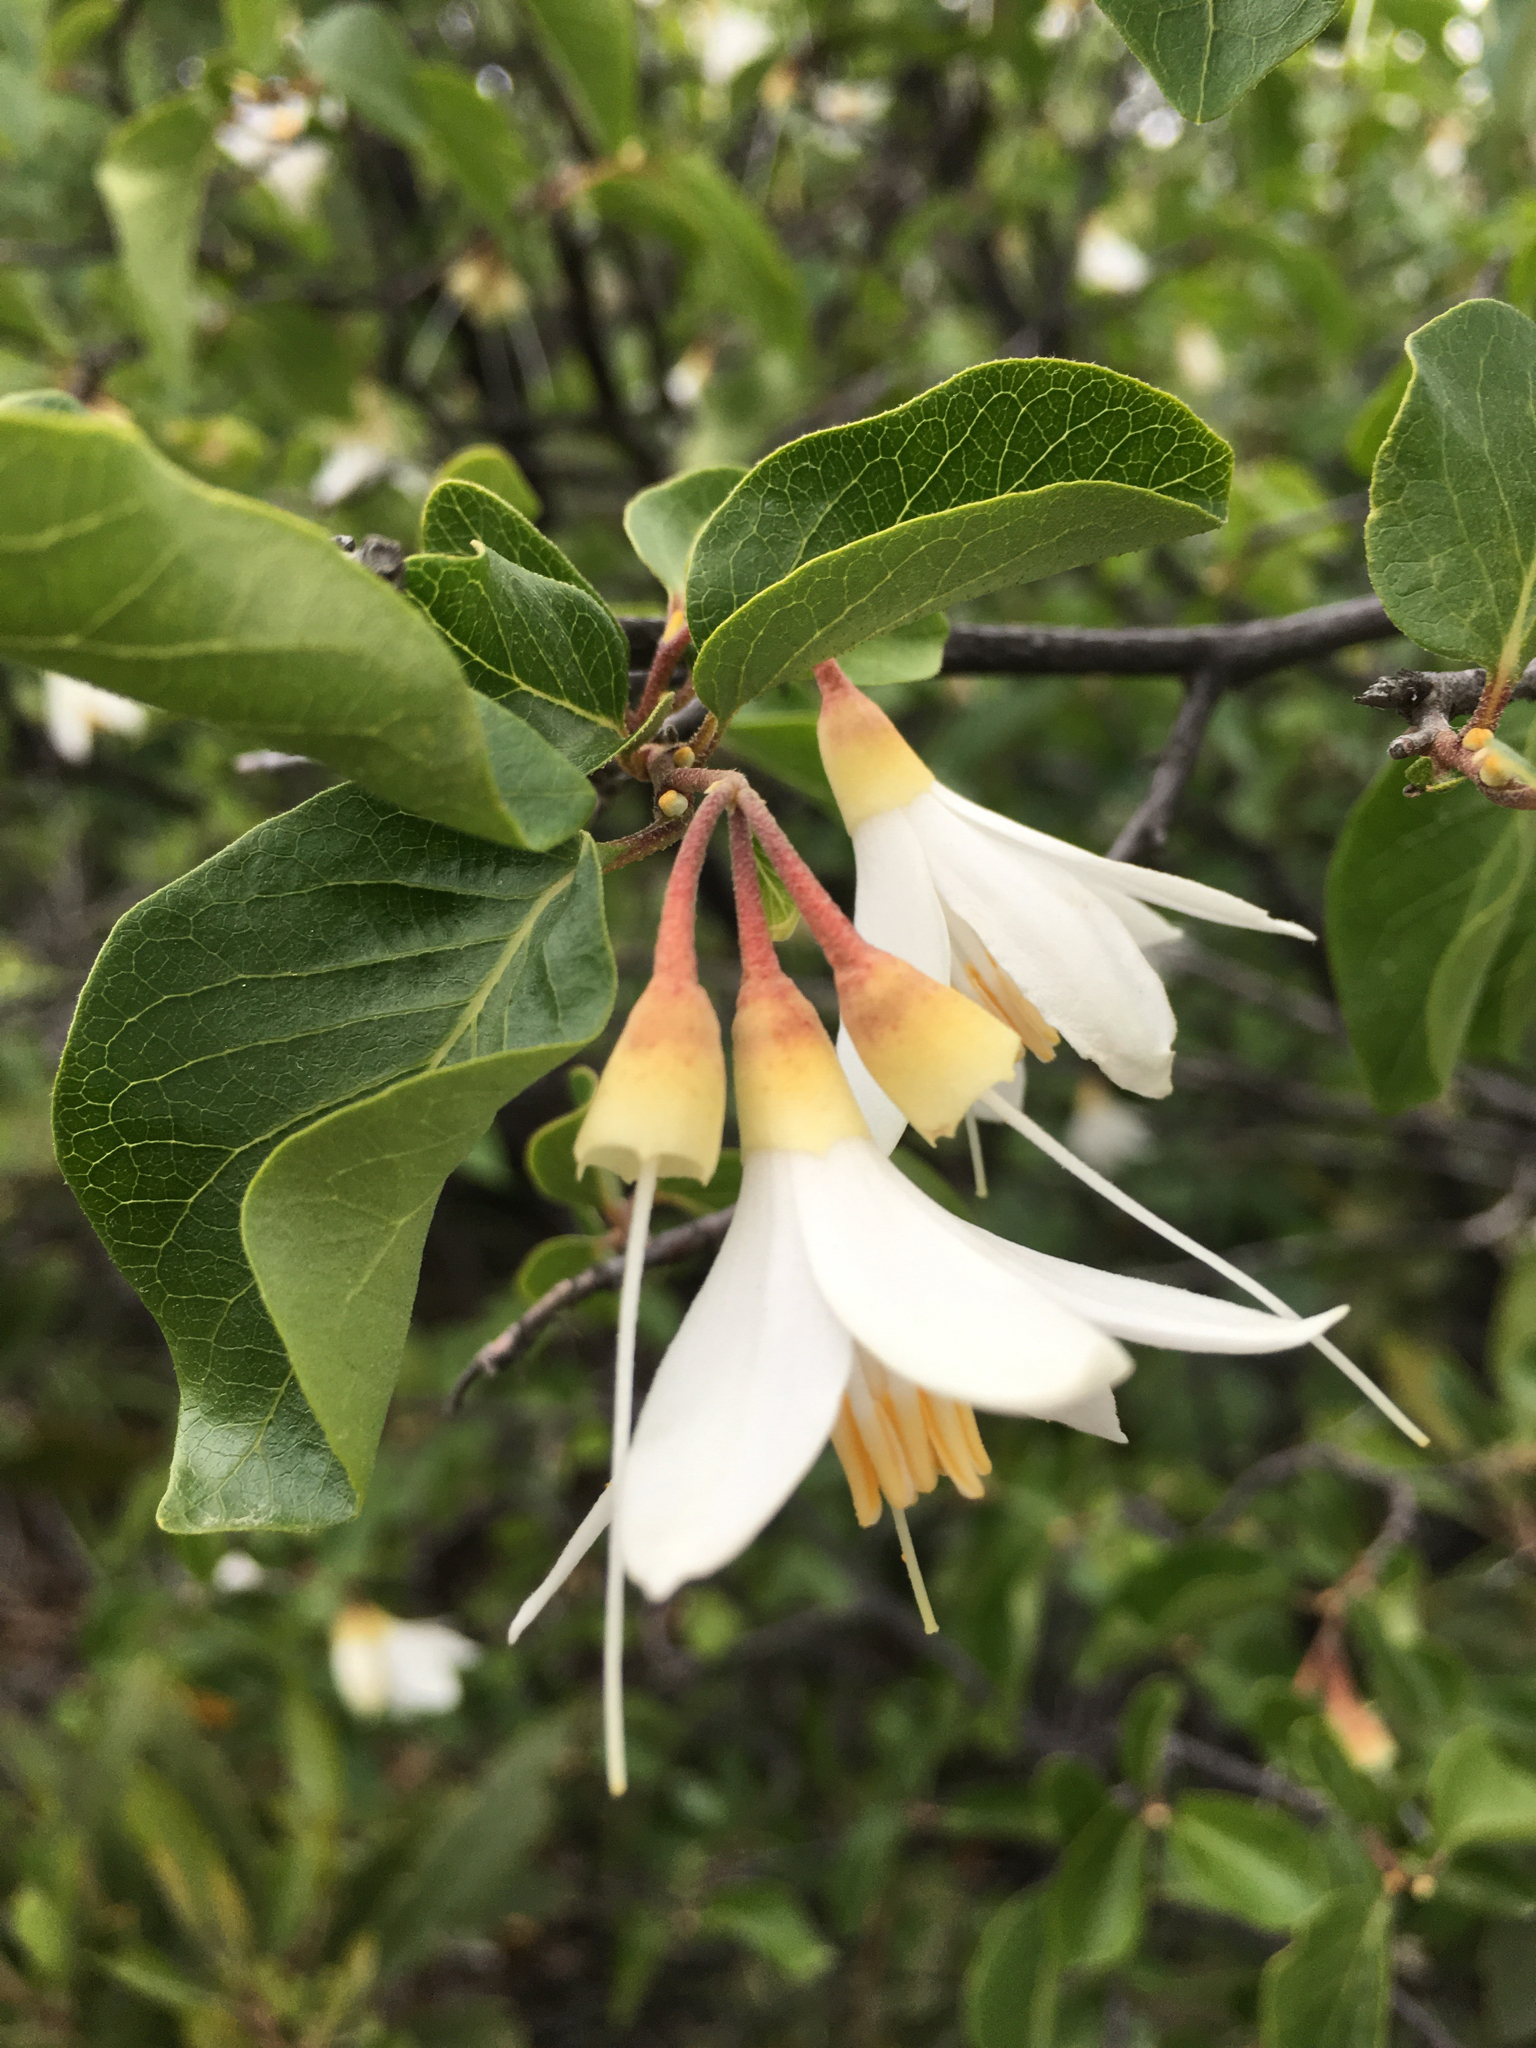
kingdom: Plantae
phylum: Tracheophyta
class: Magnoliopsida
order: Ericales
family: Styracaceae
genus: Styrax
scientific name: Styrax redivivus
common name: California styrax
